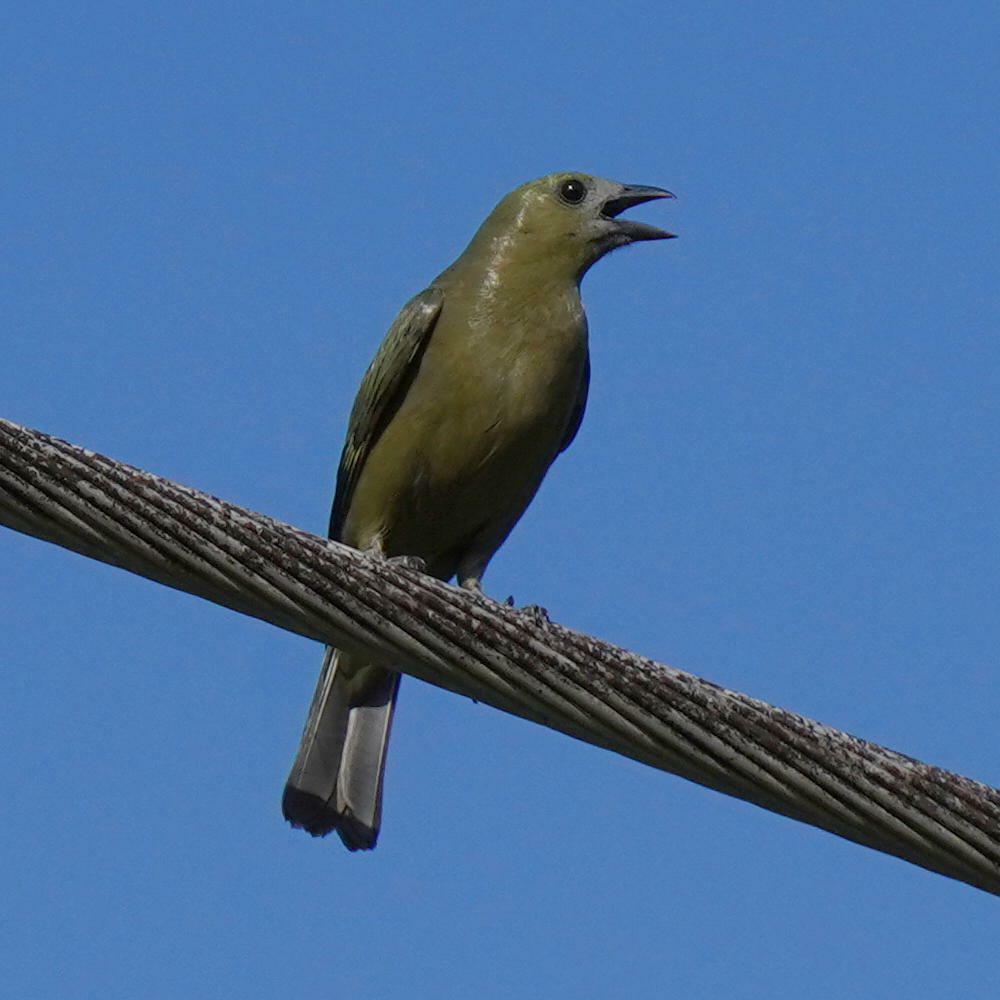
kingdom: Animalia
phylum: Chordata
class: Aves
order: Passeriformes
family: Thraupidae
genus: Thraupis
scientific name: Thraupis palmarum
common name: Palm tanager
